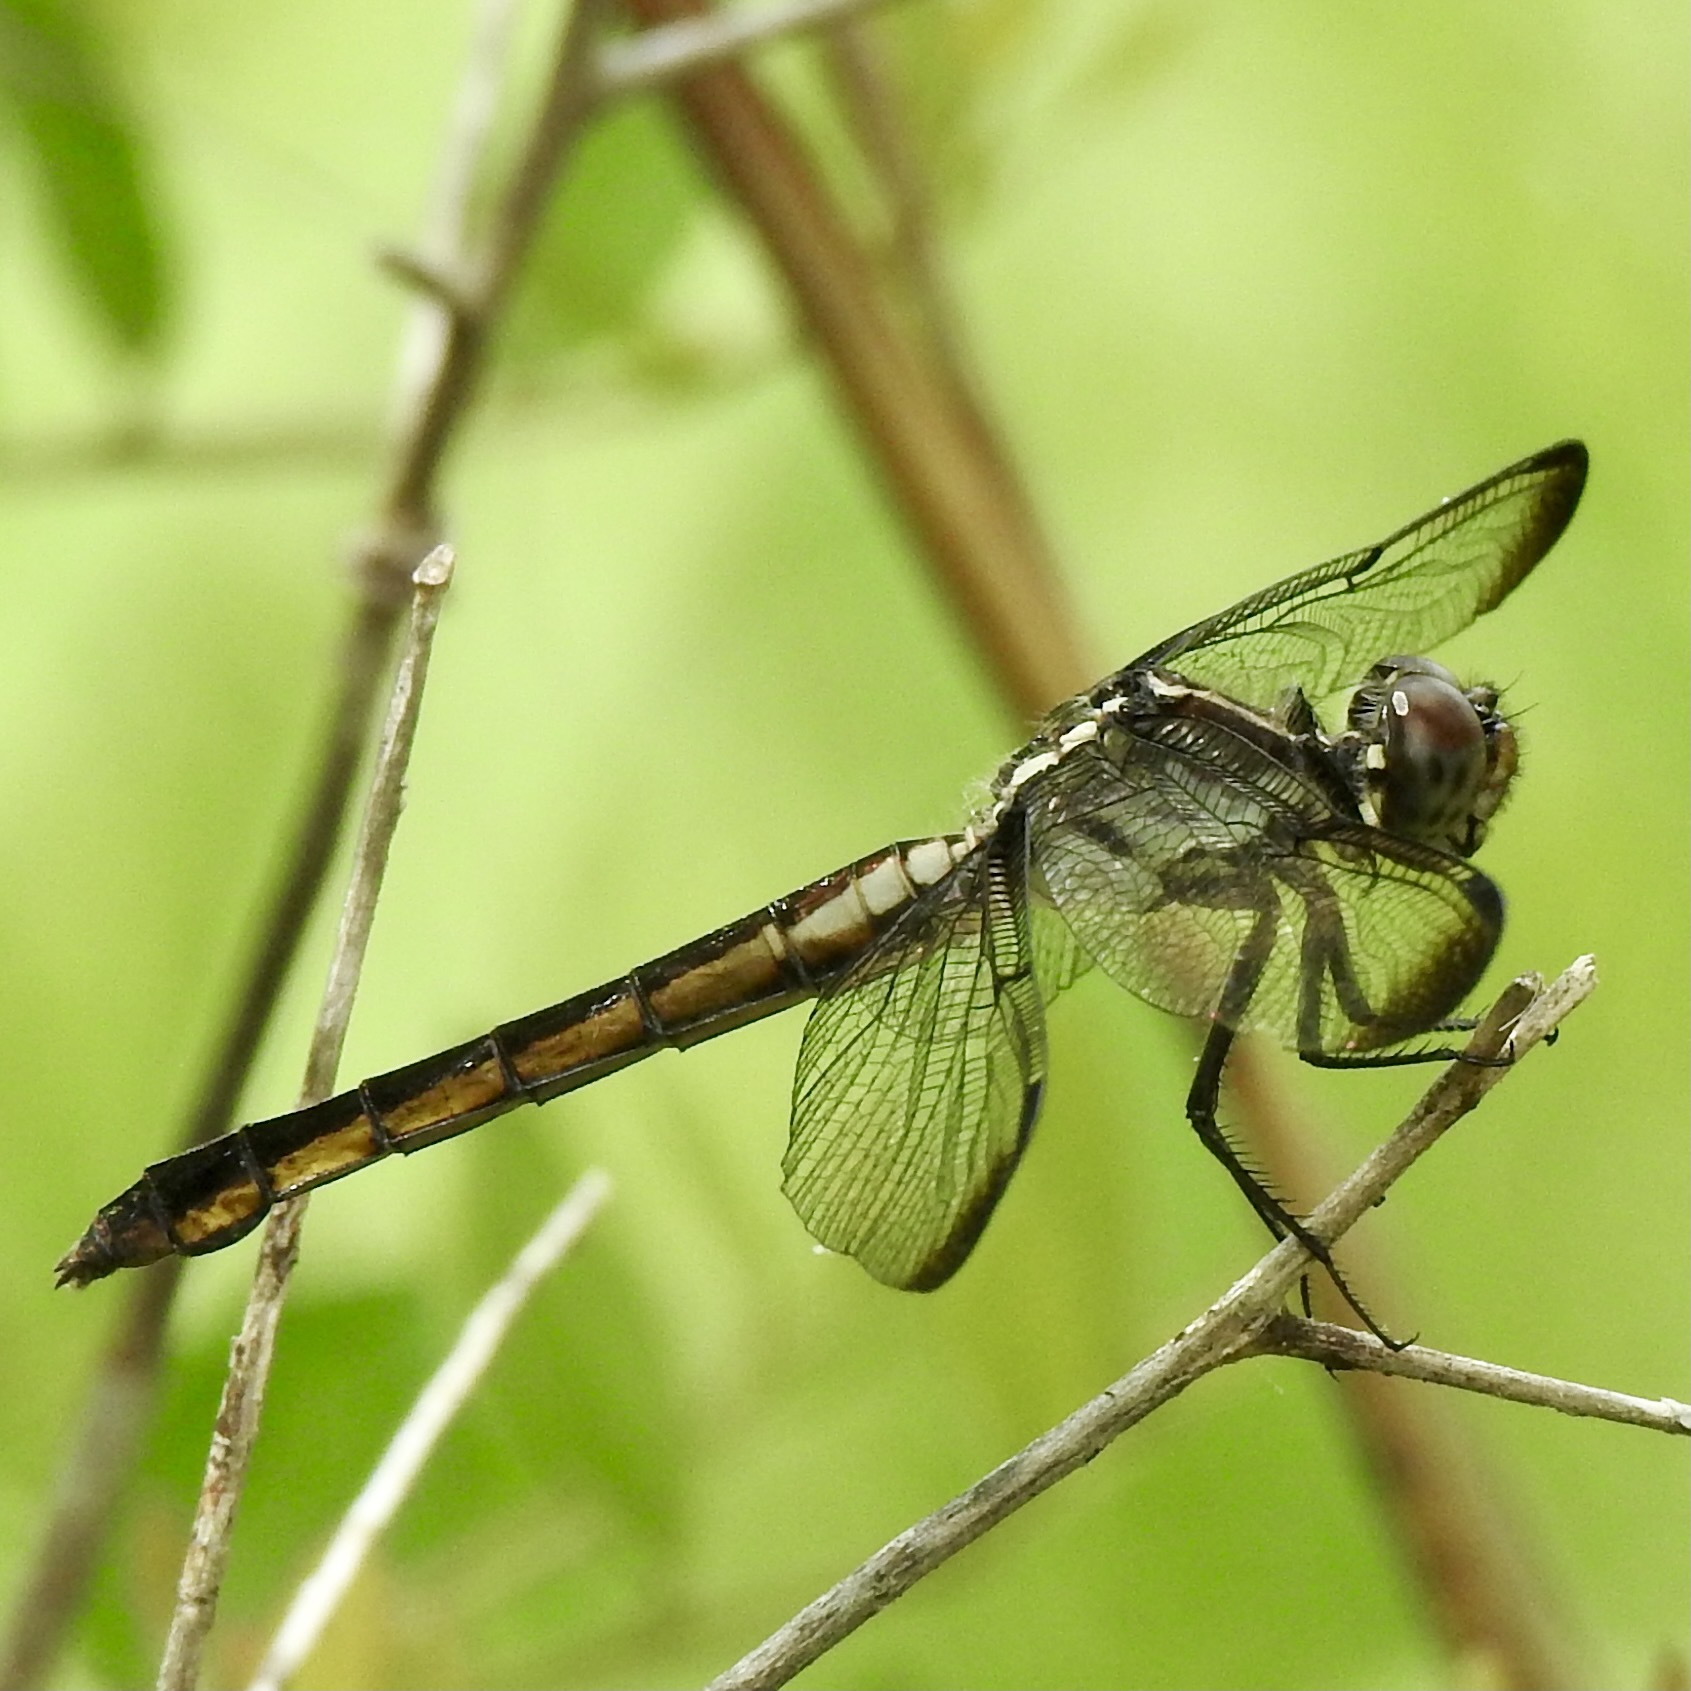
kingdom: Animalia
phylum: Arthropoda
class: Insecta
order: Odonata
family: Libellulidae
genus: Libellula
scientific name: Libellula incesta
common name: Slaty skimmer
